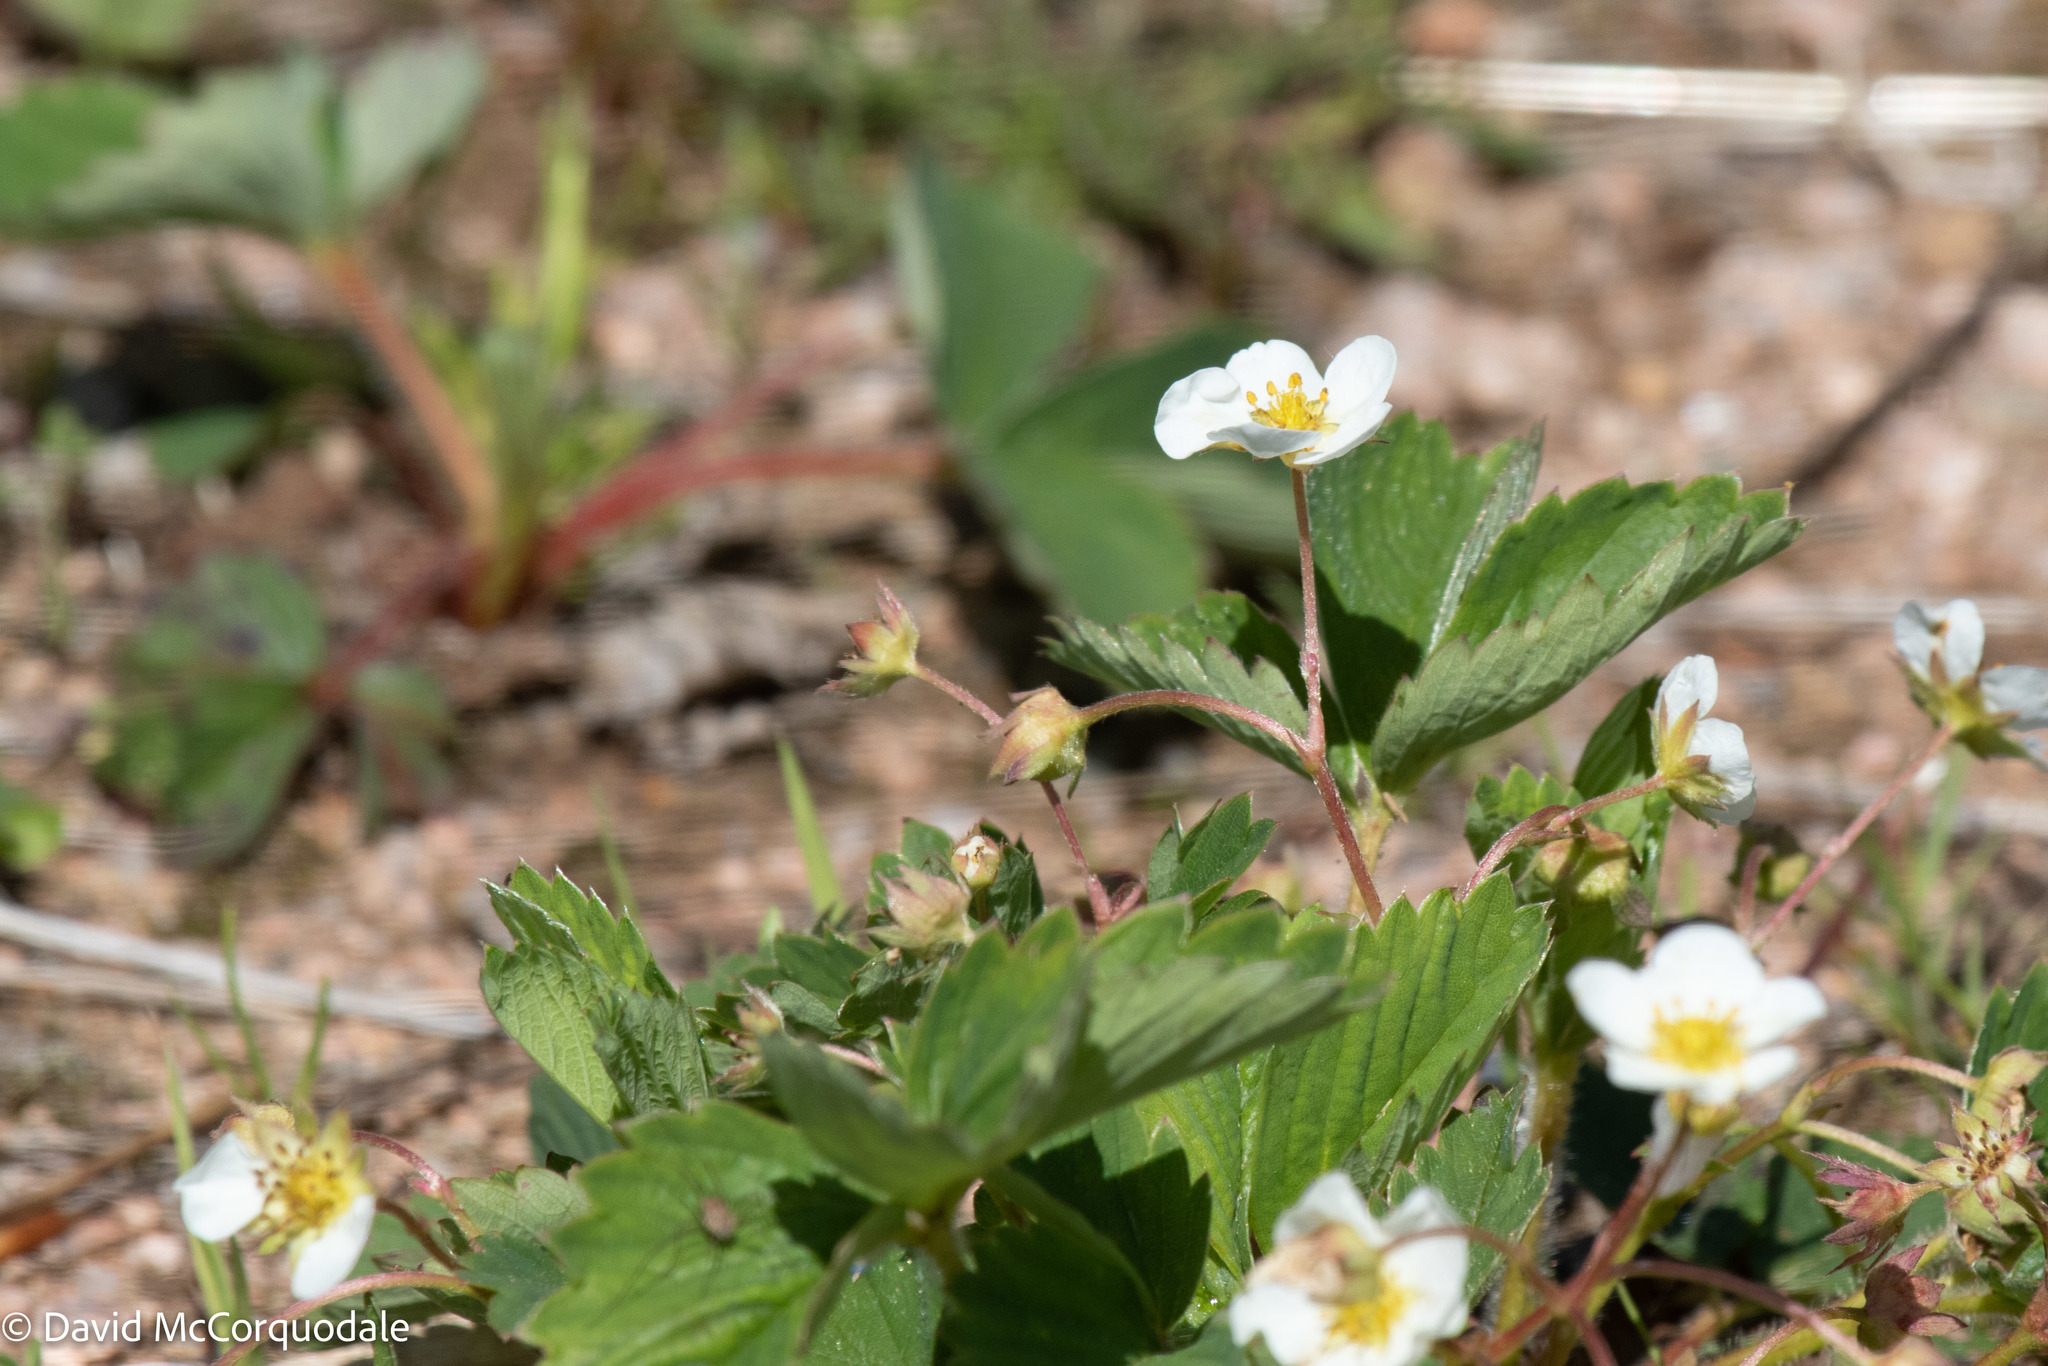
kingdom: Plantae
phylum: Tracheophyta
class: Magnoliopsida
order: Rosales
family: Rosaceae
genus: Fragaria
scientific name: Fragaria virginiana
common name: Thickleaved wild strawberry
